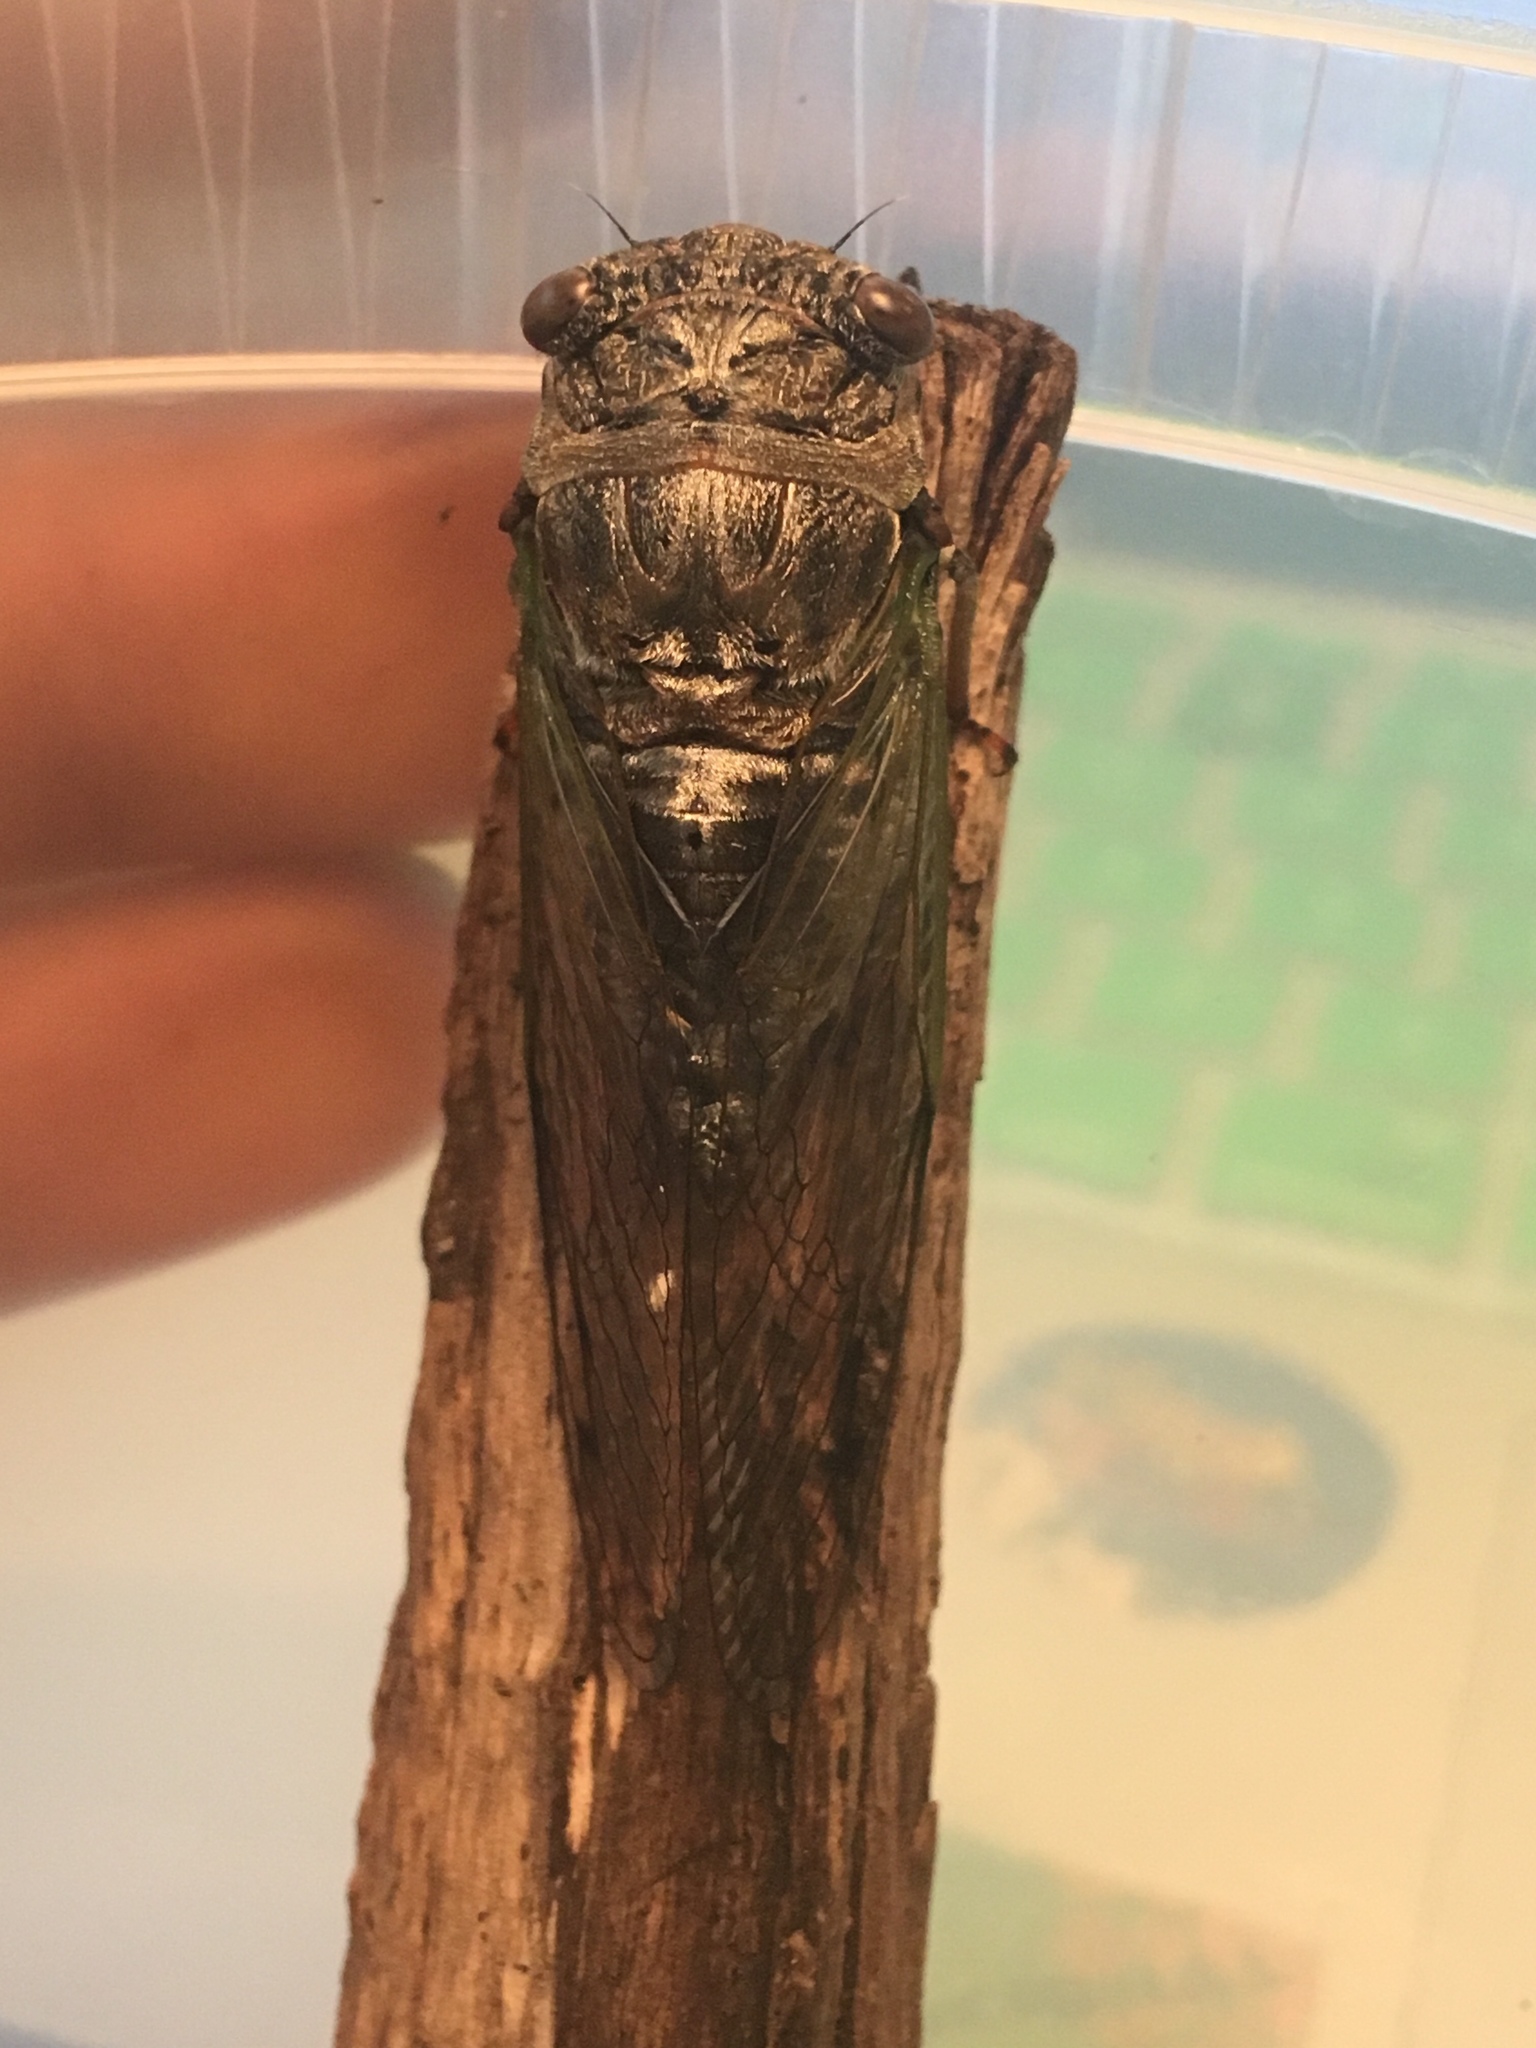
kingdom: Animalia
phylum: Arthropoda
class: Insecta
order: Hemiptera
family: Cicadidae
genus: Neotibicen
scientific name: Neotibicen canicularis
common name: God-day cicada
